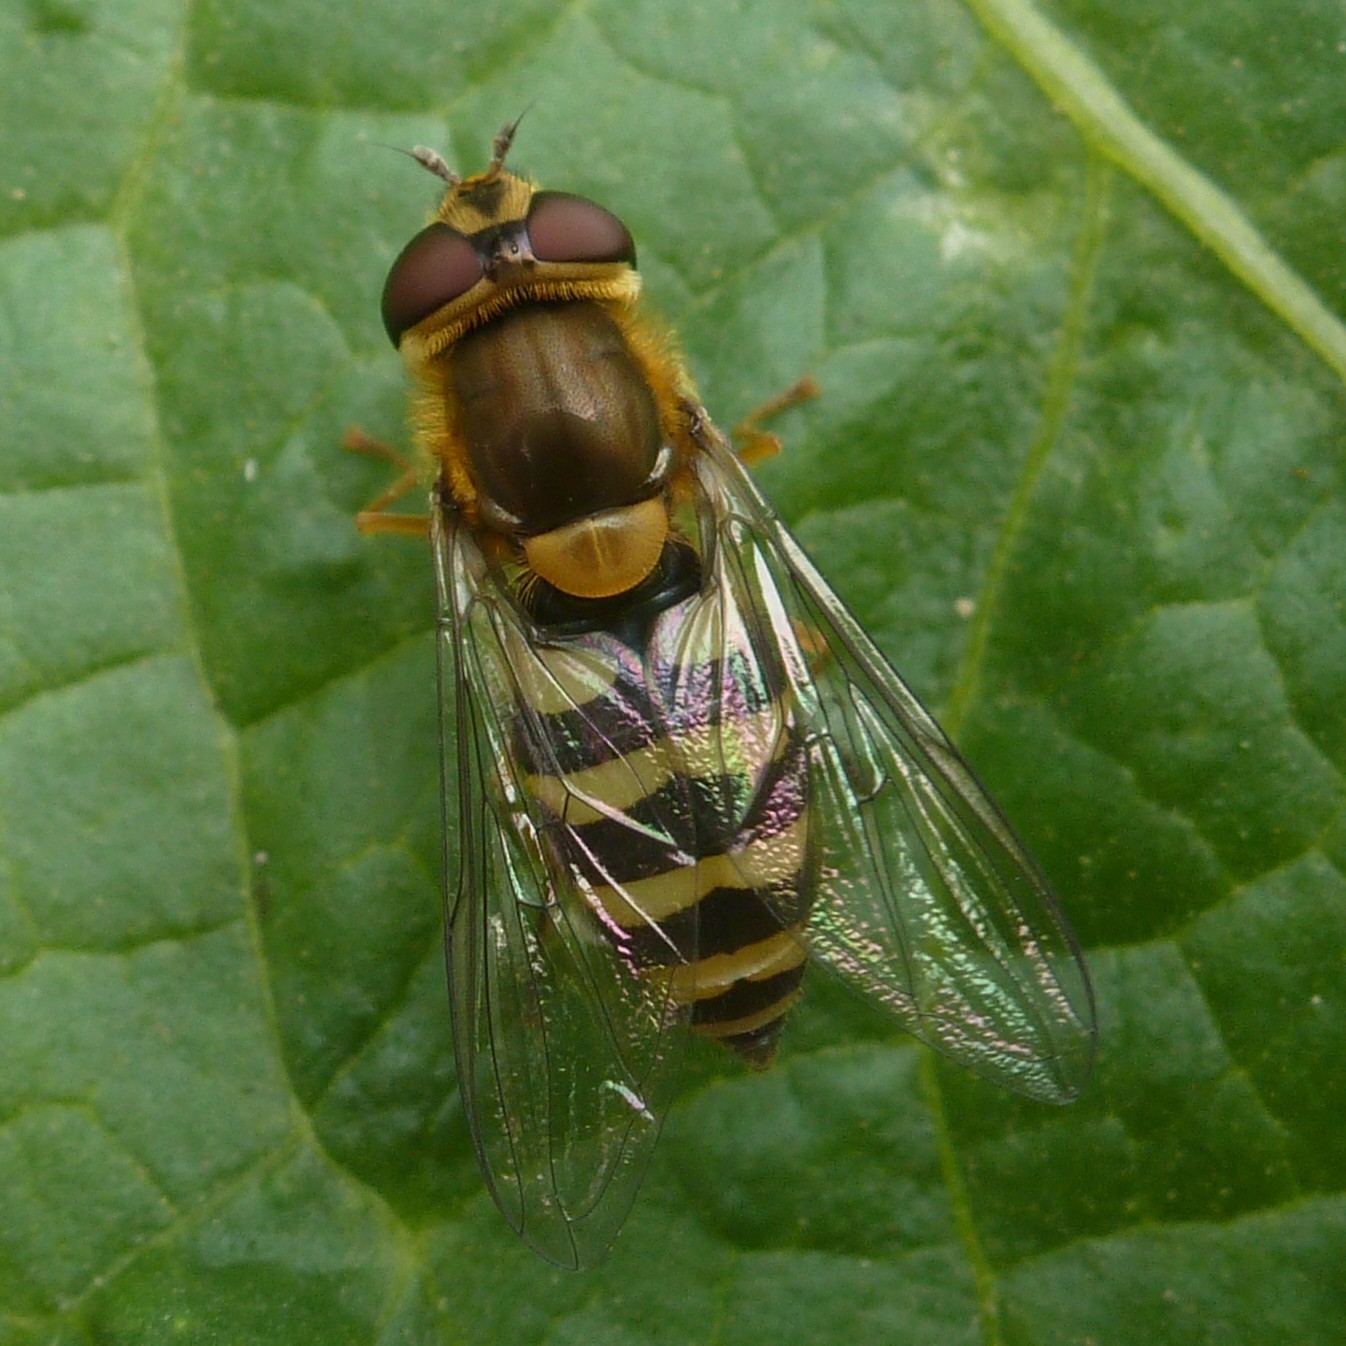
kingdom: Animalia
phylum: Arthropoda
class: Insecta
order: Diptera
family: Syrphidae
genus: Syrphus
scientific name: Syrphus
